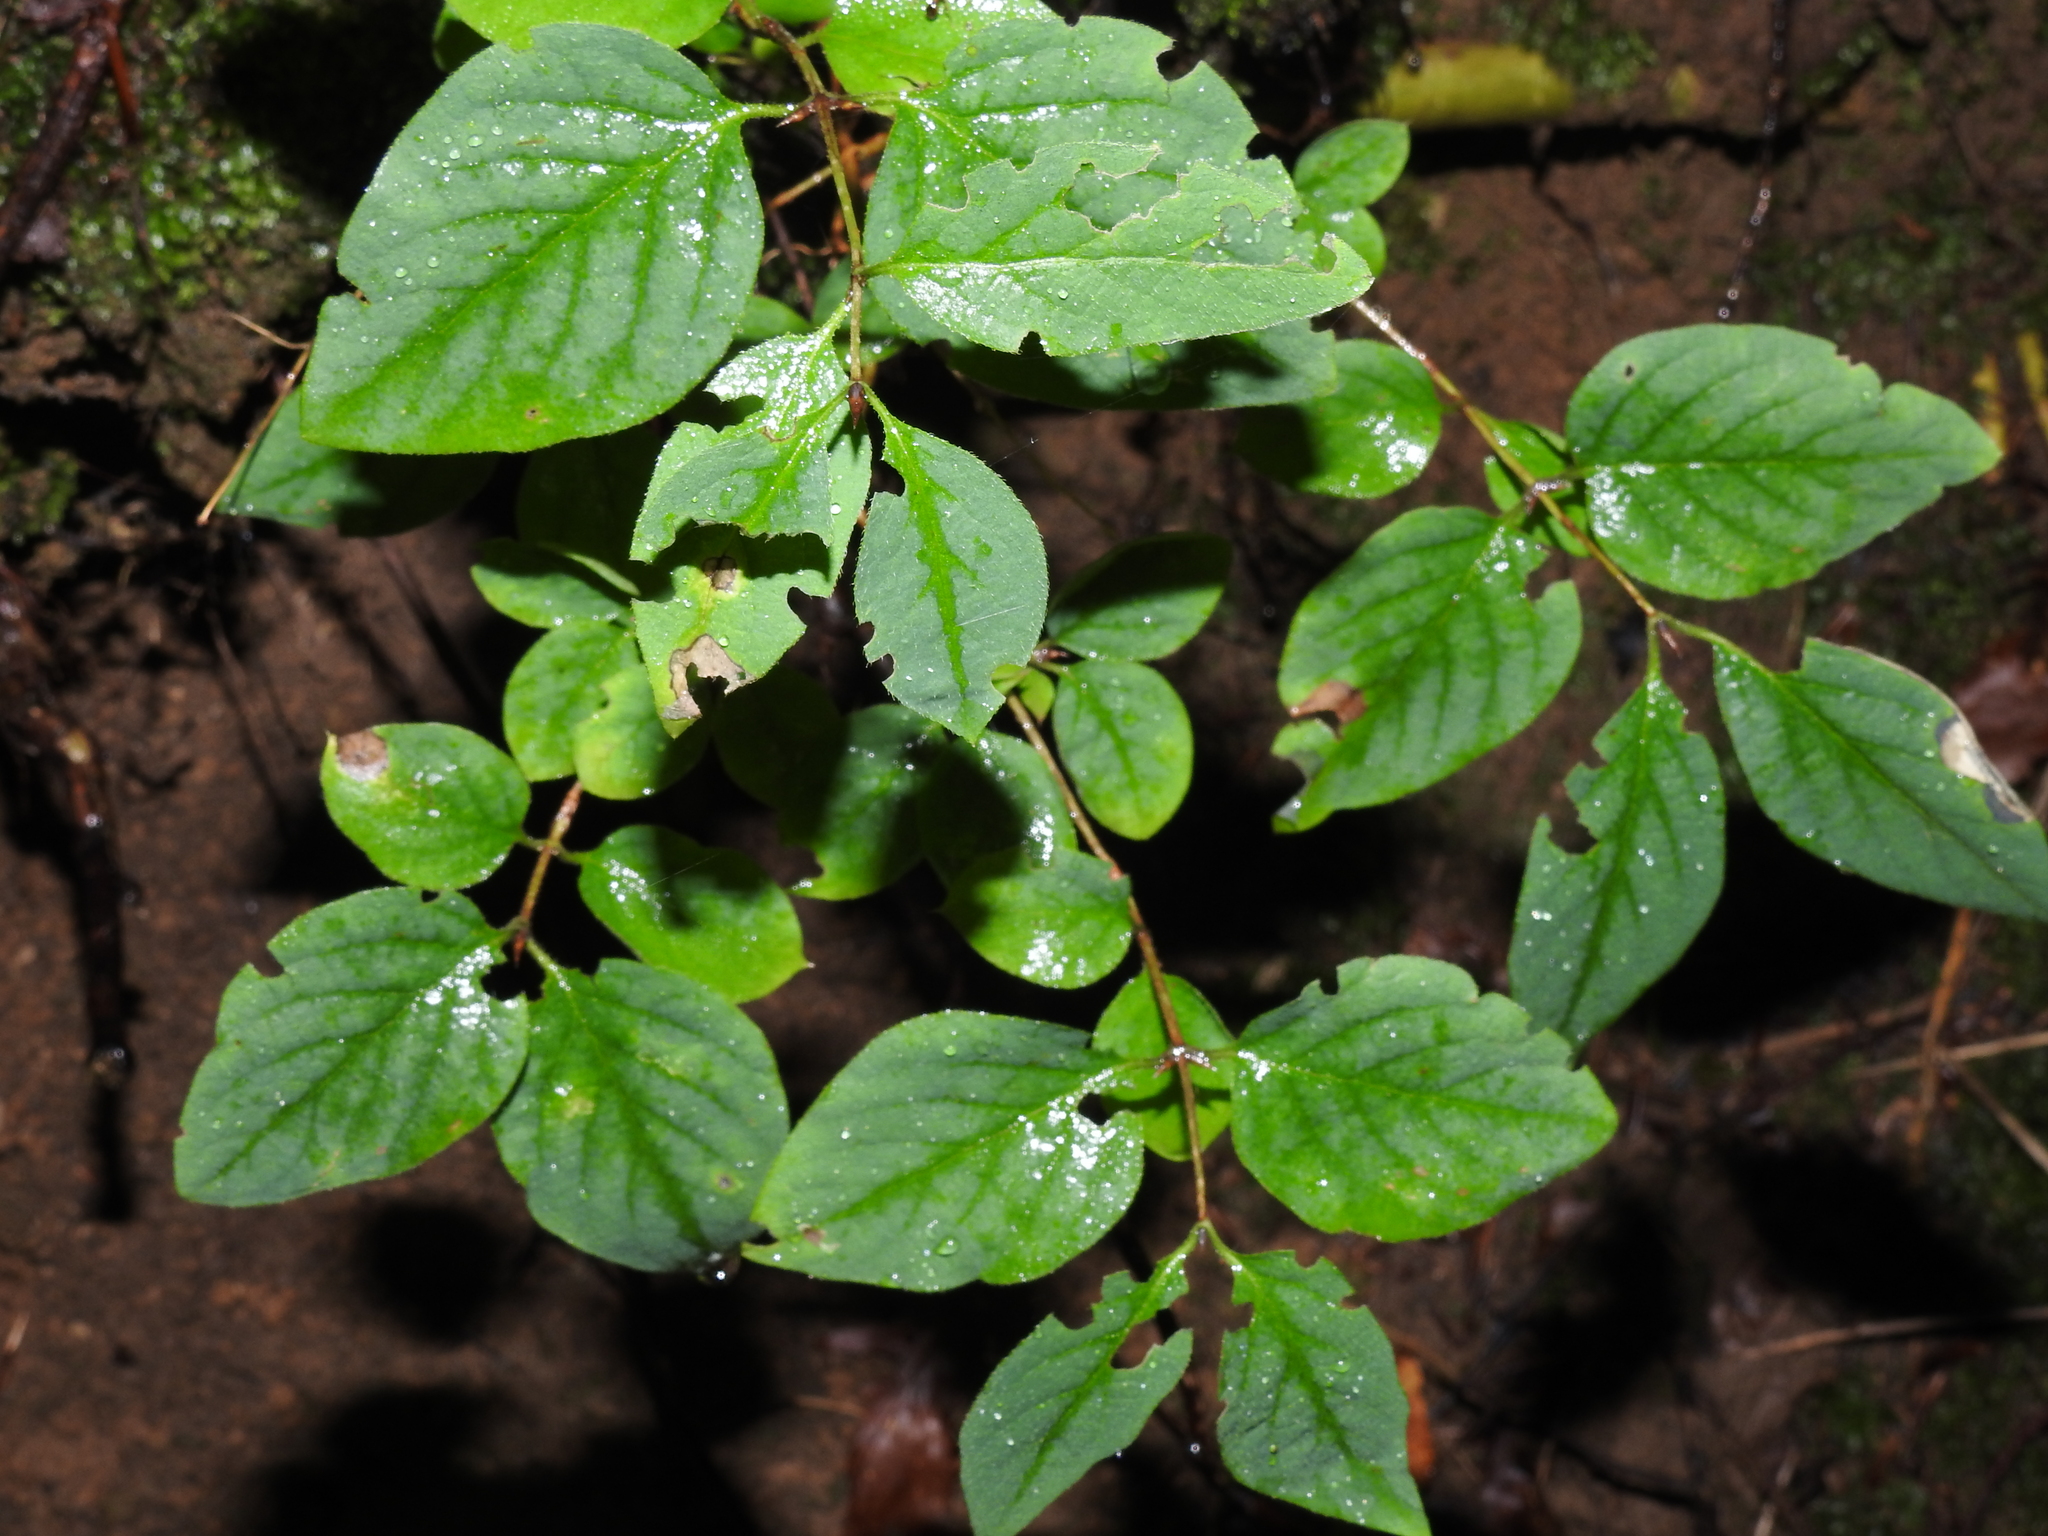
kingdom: Plantae
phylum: Tracheophyta
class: Magnoliopsida
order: Dipsacales
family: Caprifoliaceae
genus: Lonicera
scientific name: Lonicera xylosteum
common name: Fly honeysuckle
